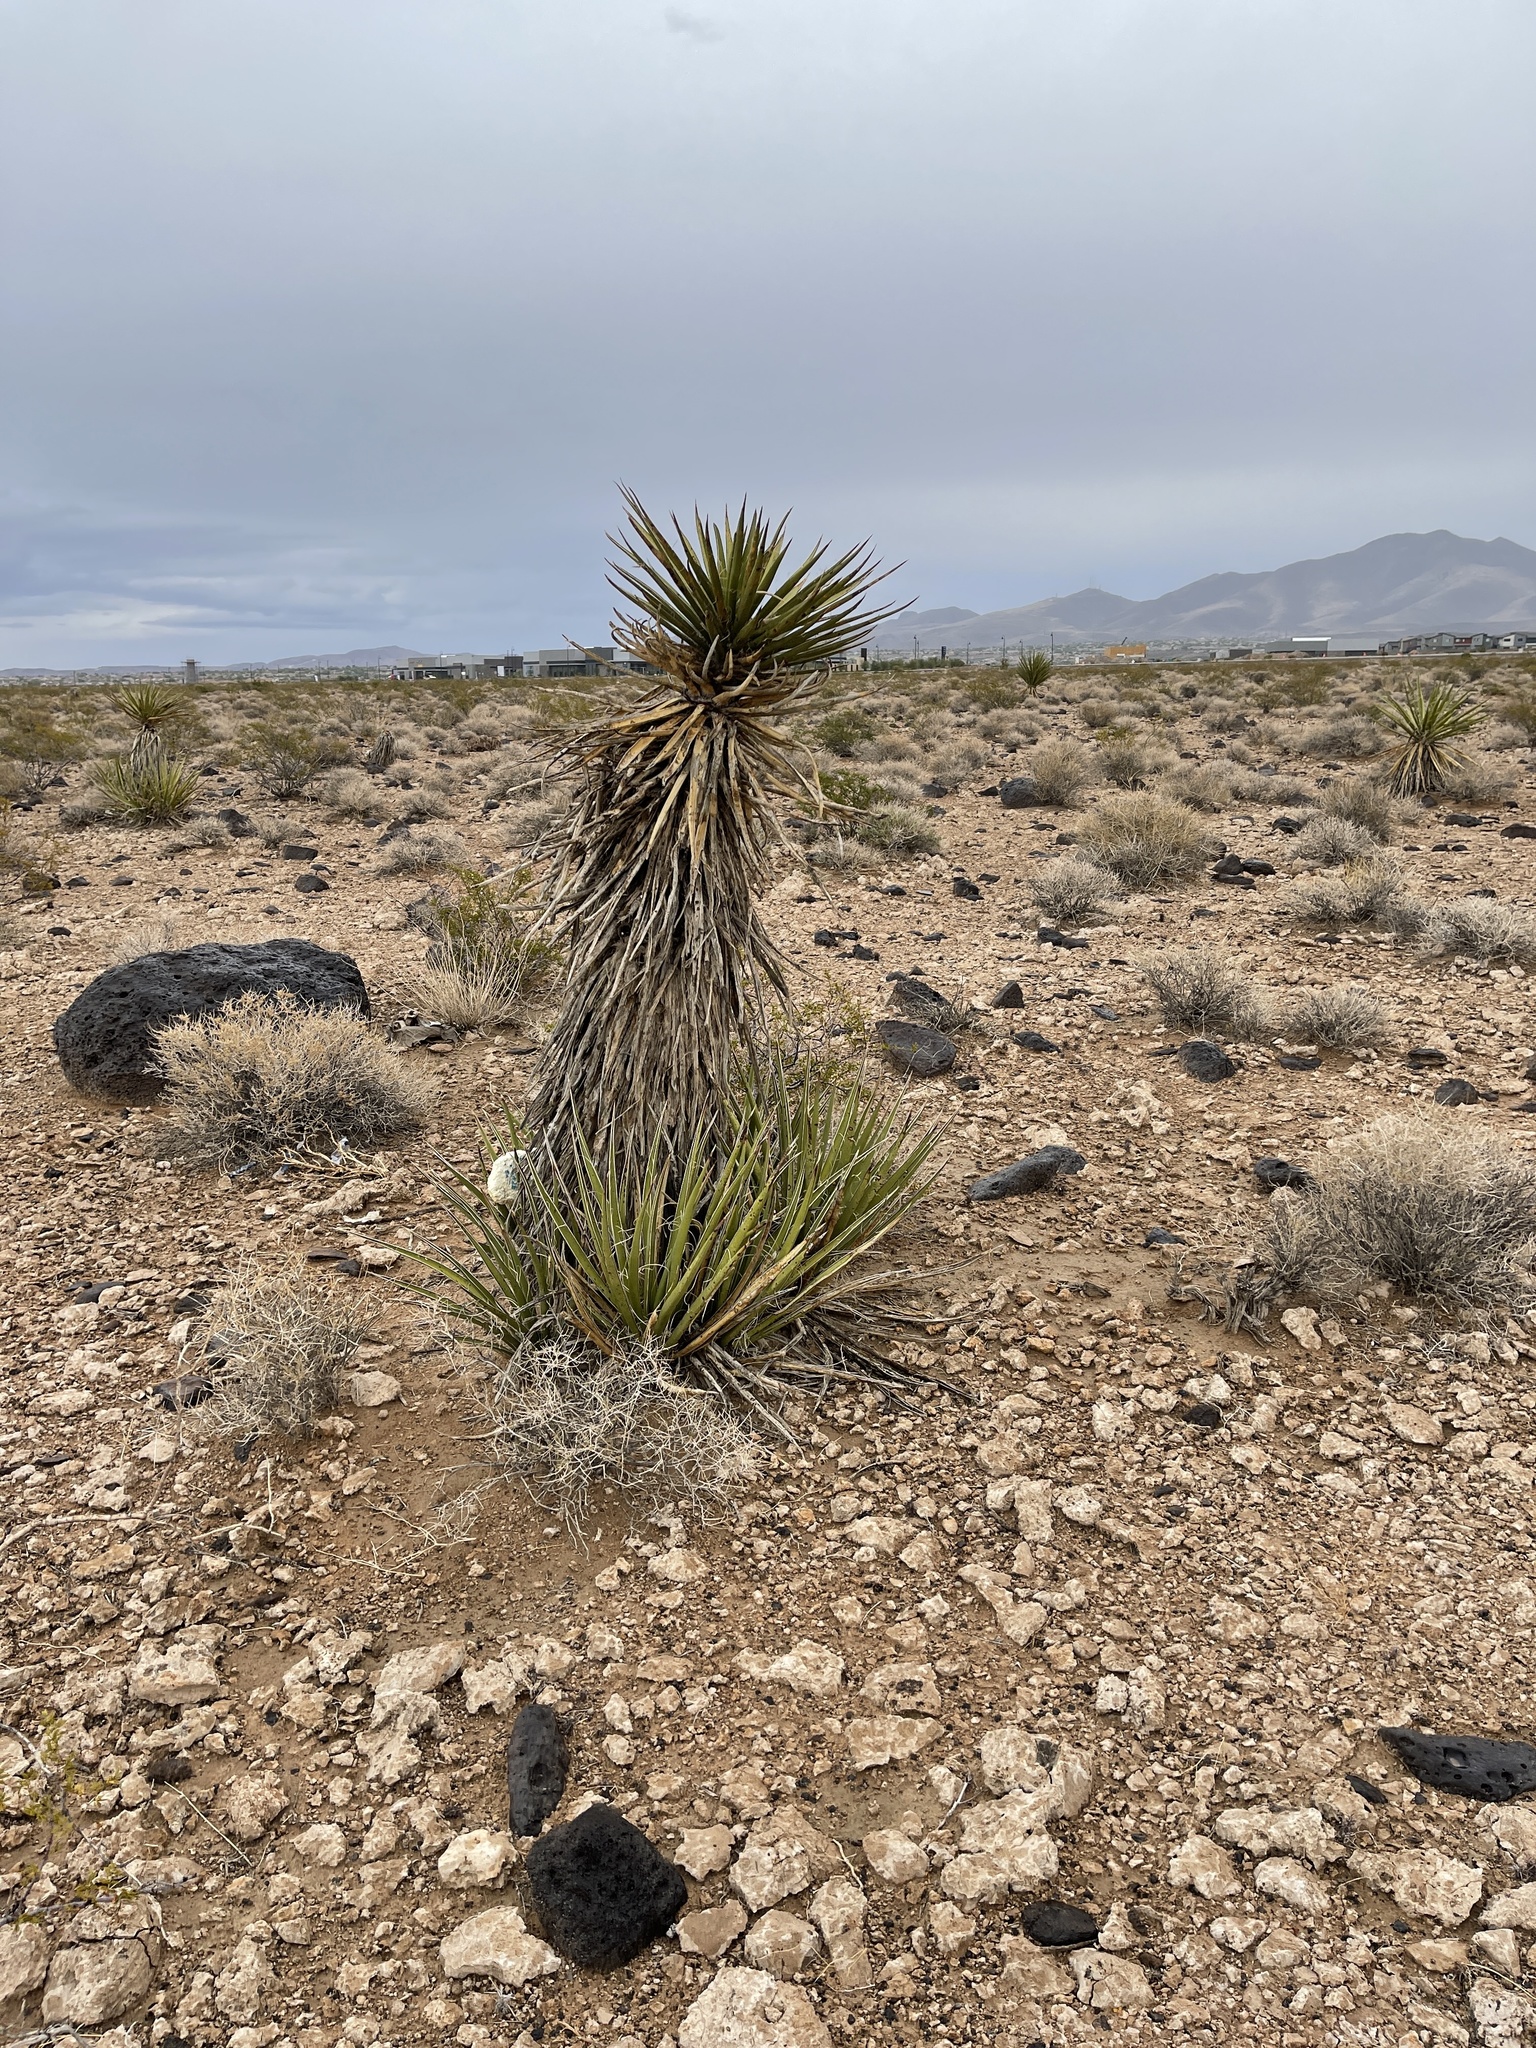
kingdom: Plantae
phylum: Tracheophyta
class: Liliopsida
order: Asparagales
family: Asparagaceae
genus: Yucca
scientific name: Yucca schidigera
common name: Mojave yucca
